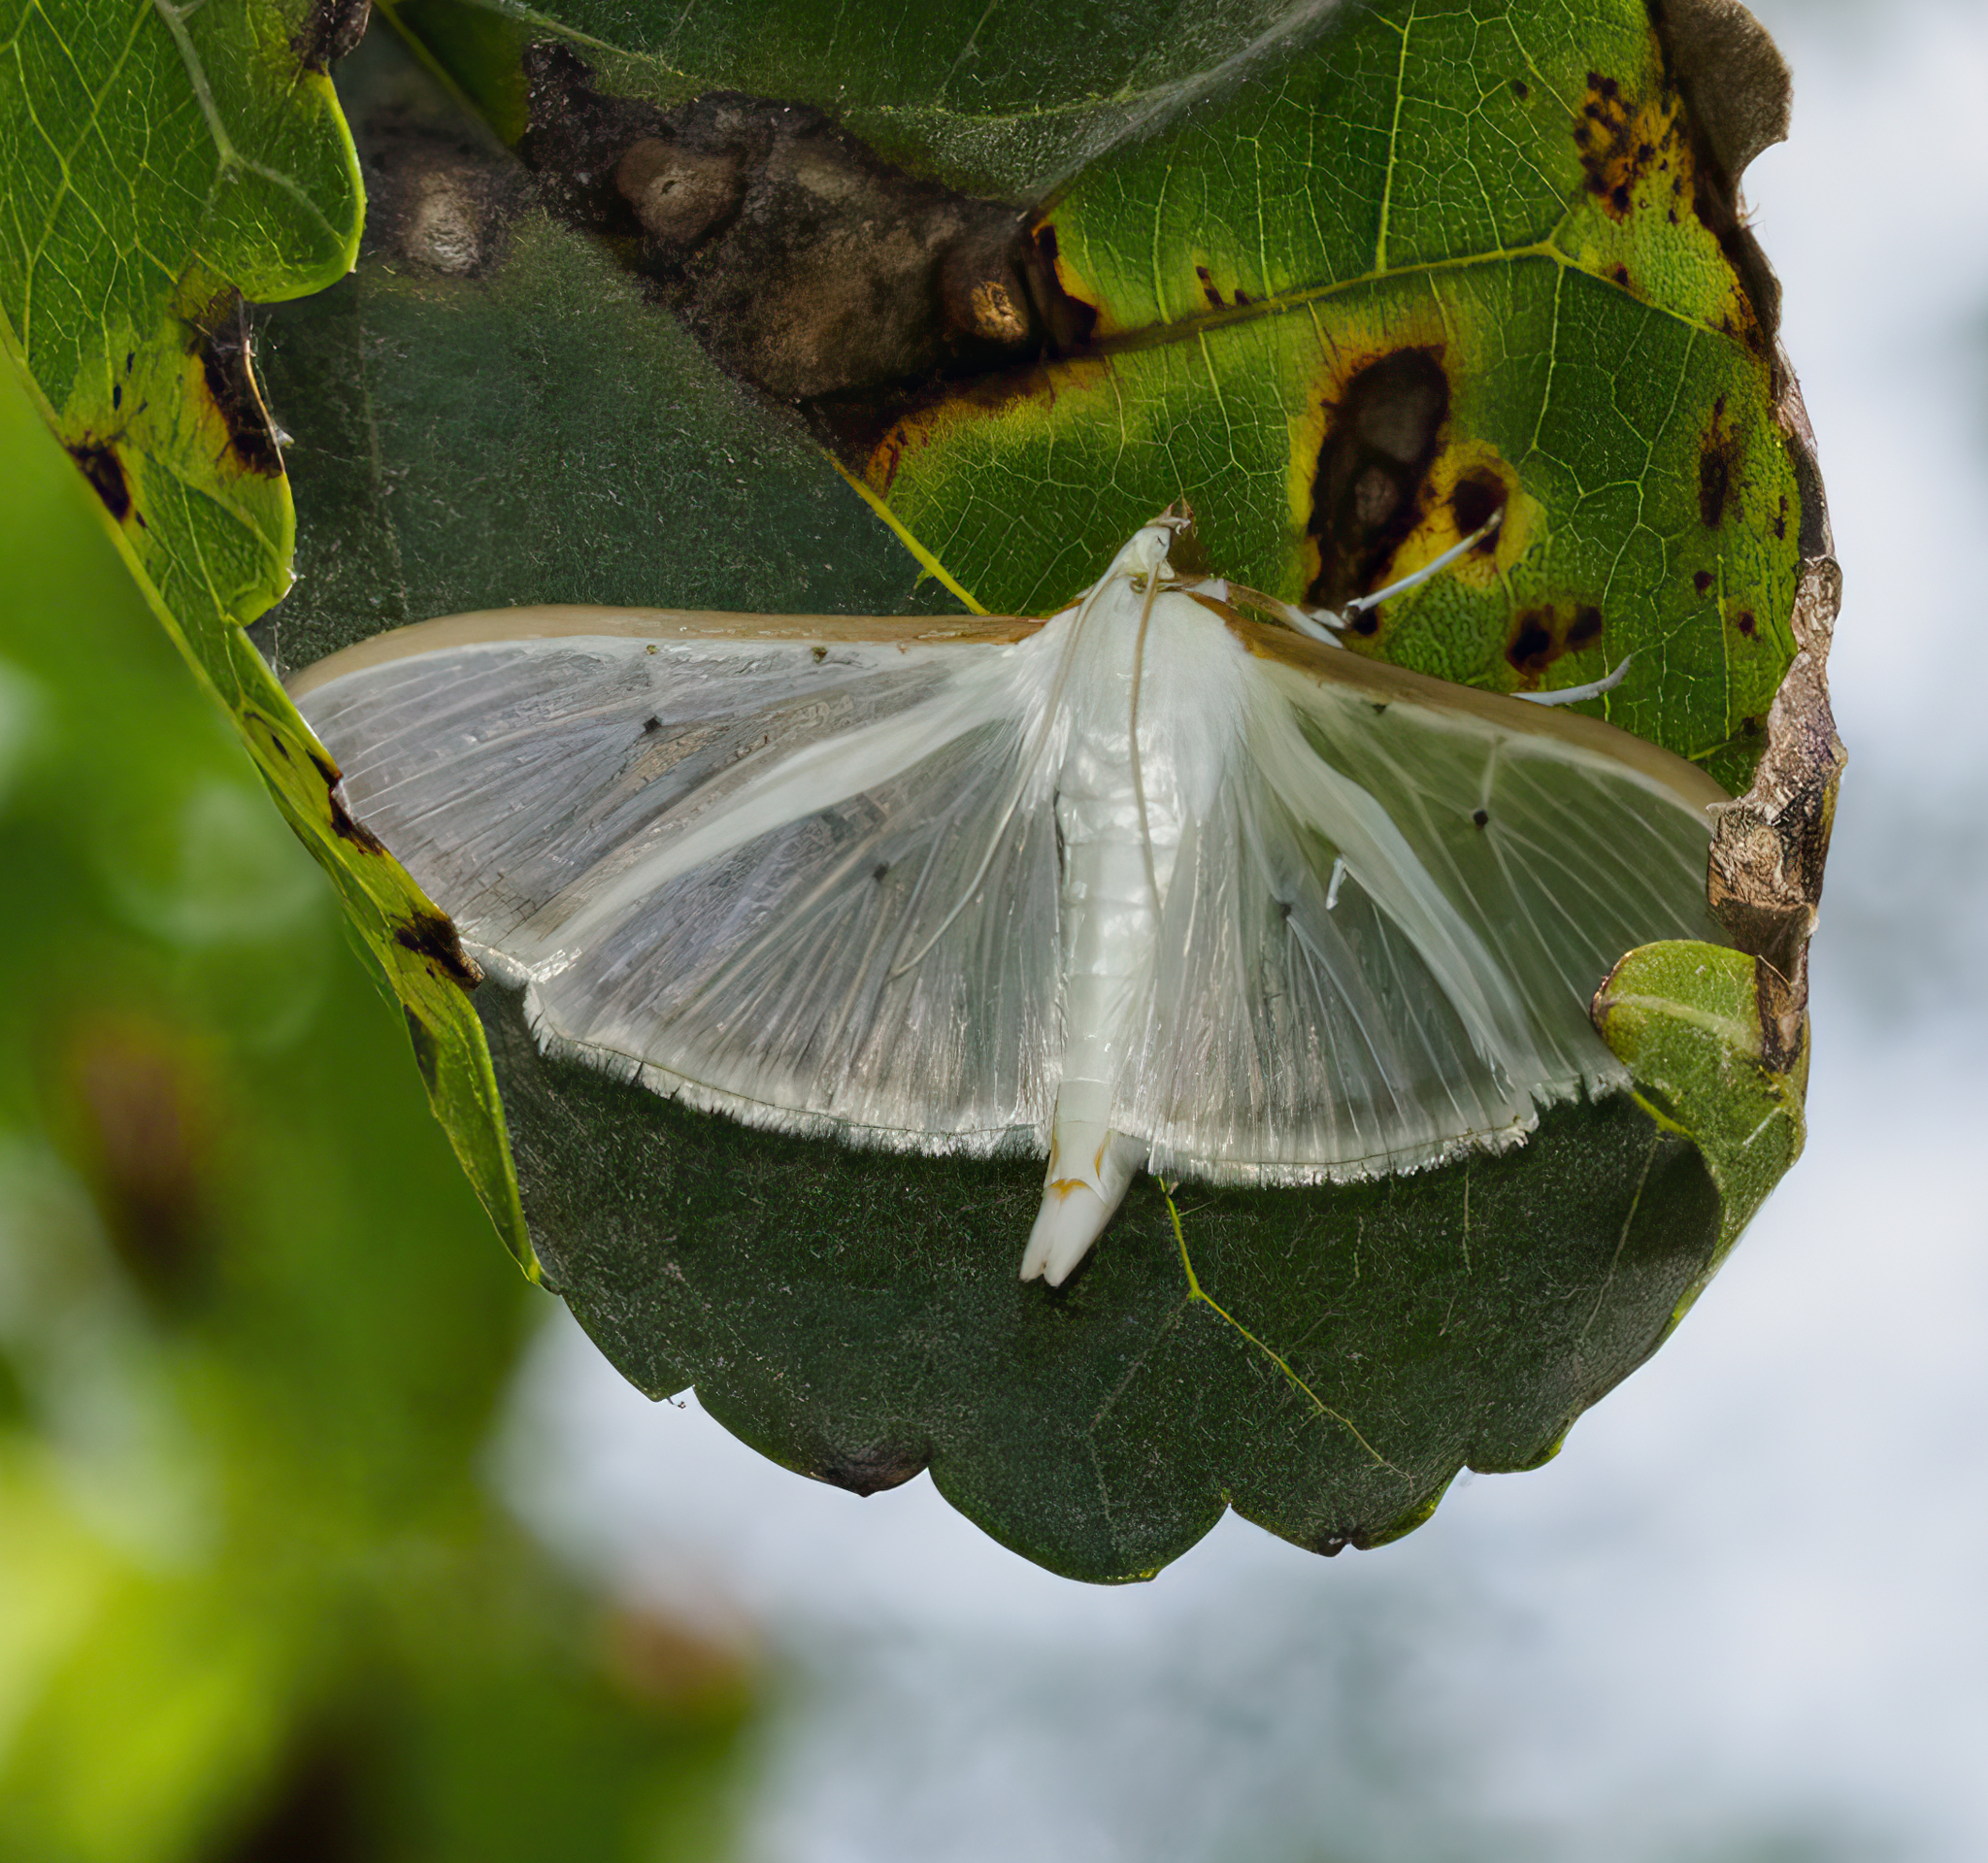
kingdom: Animalia
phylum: Arthropoda
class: Insecta
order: Lepidoptera
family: Crambidae
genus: Palpita
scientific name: Palpita quadristigmalis
